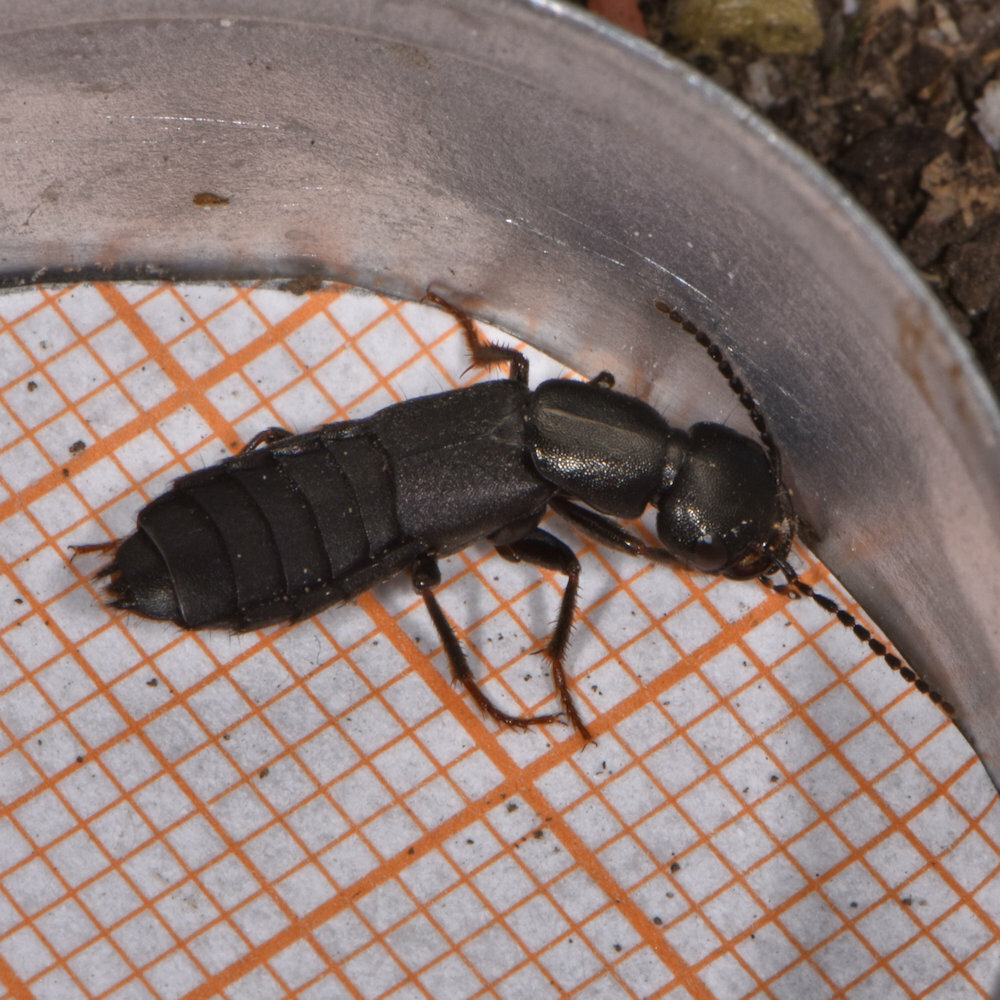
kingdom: Animalia
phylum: Arthropoda
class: Insecta
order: Coleoptera
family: Staphylinidae
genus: Tasgius
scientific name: Tasgius melanarius
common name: Rove beetle
